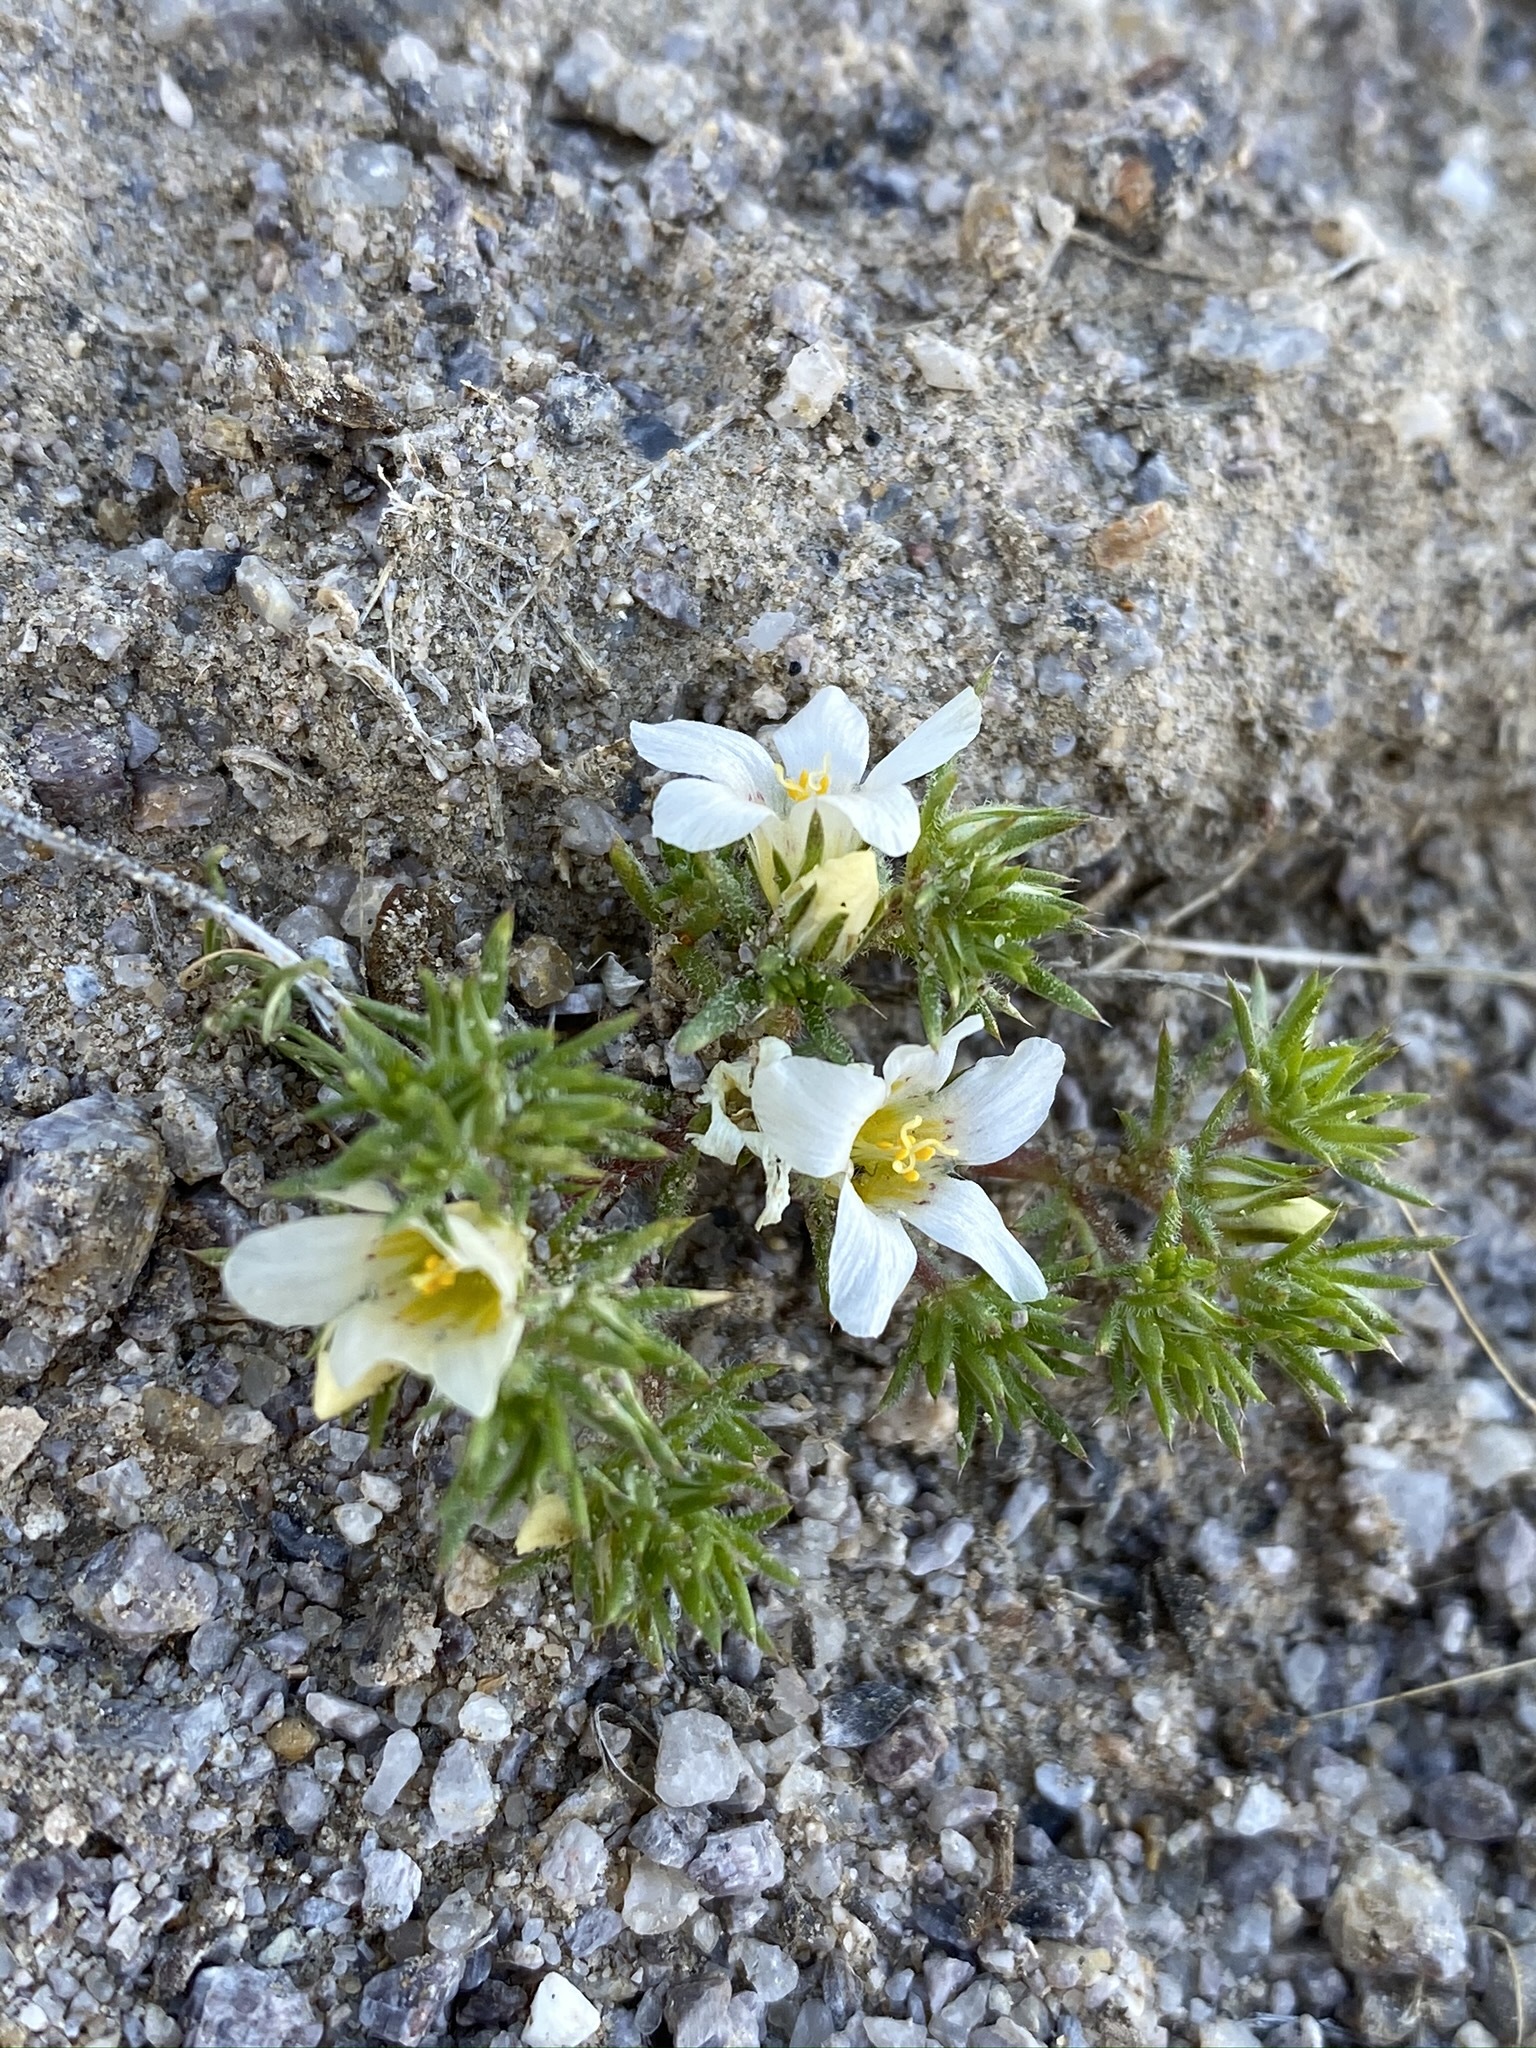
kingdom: Plantae
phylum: Tracheophyta
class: Magnoliopsida
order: Ericales
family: Polemoniaceae
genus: Linanthus
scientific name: Linanthus demissus
